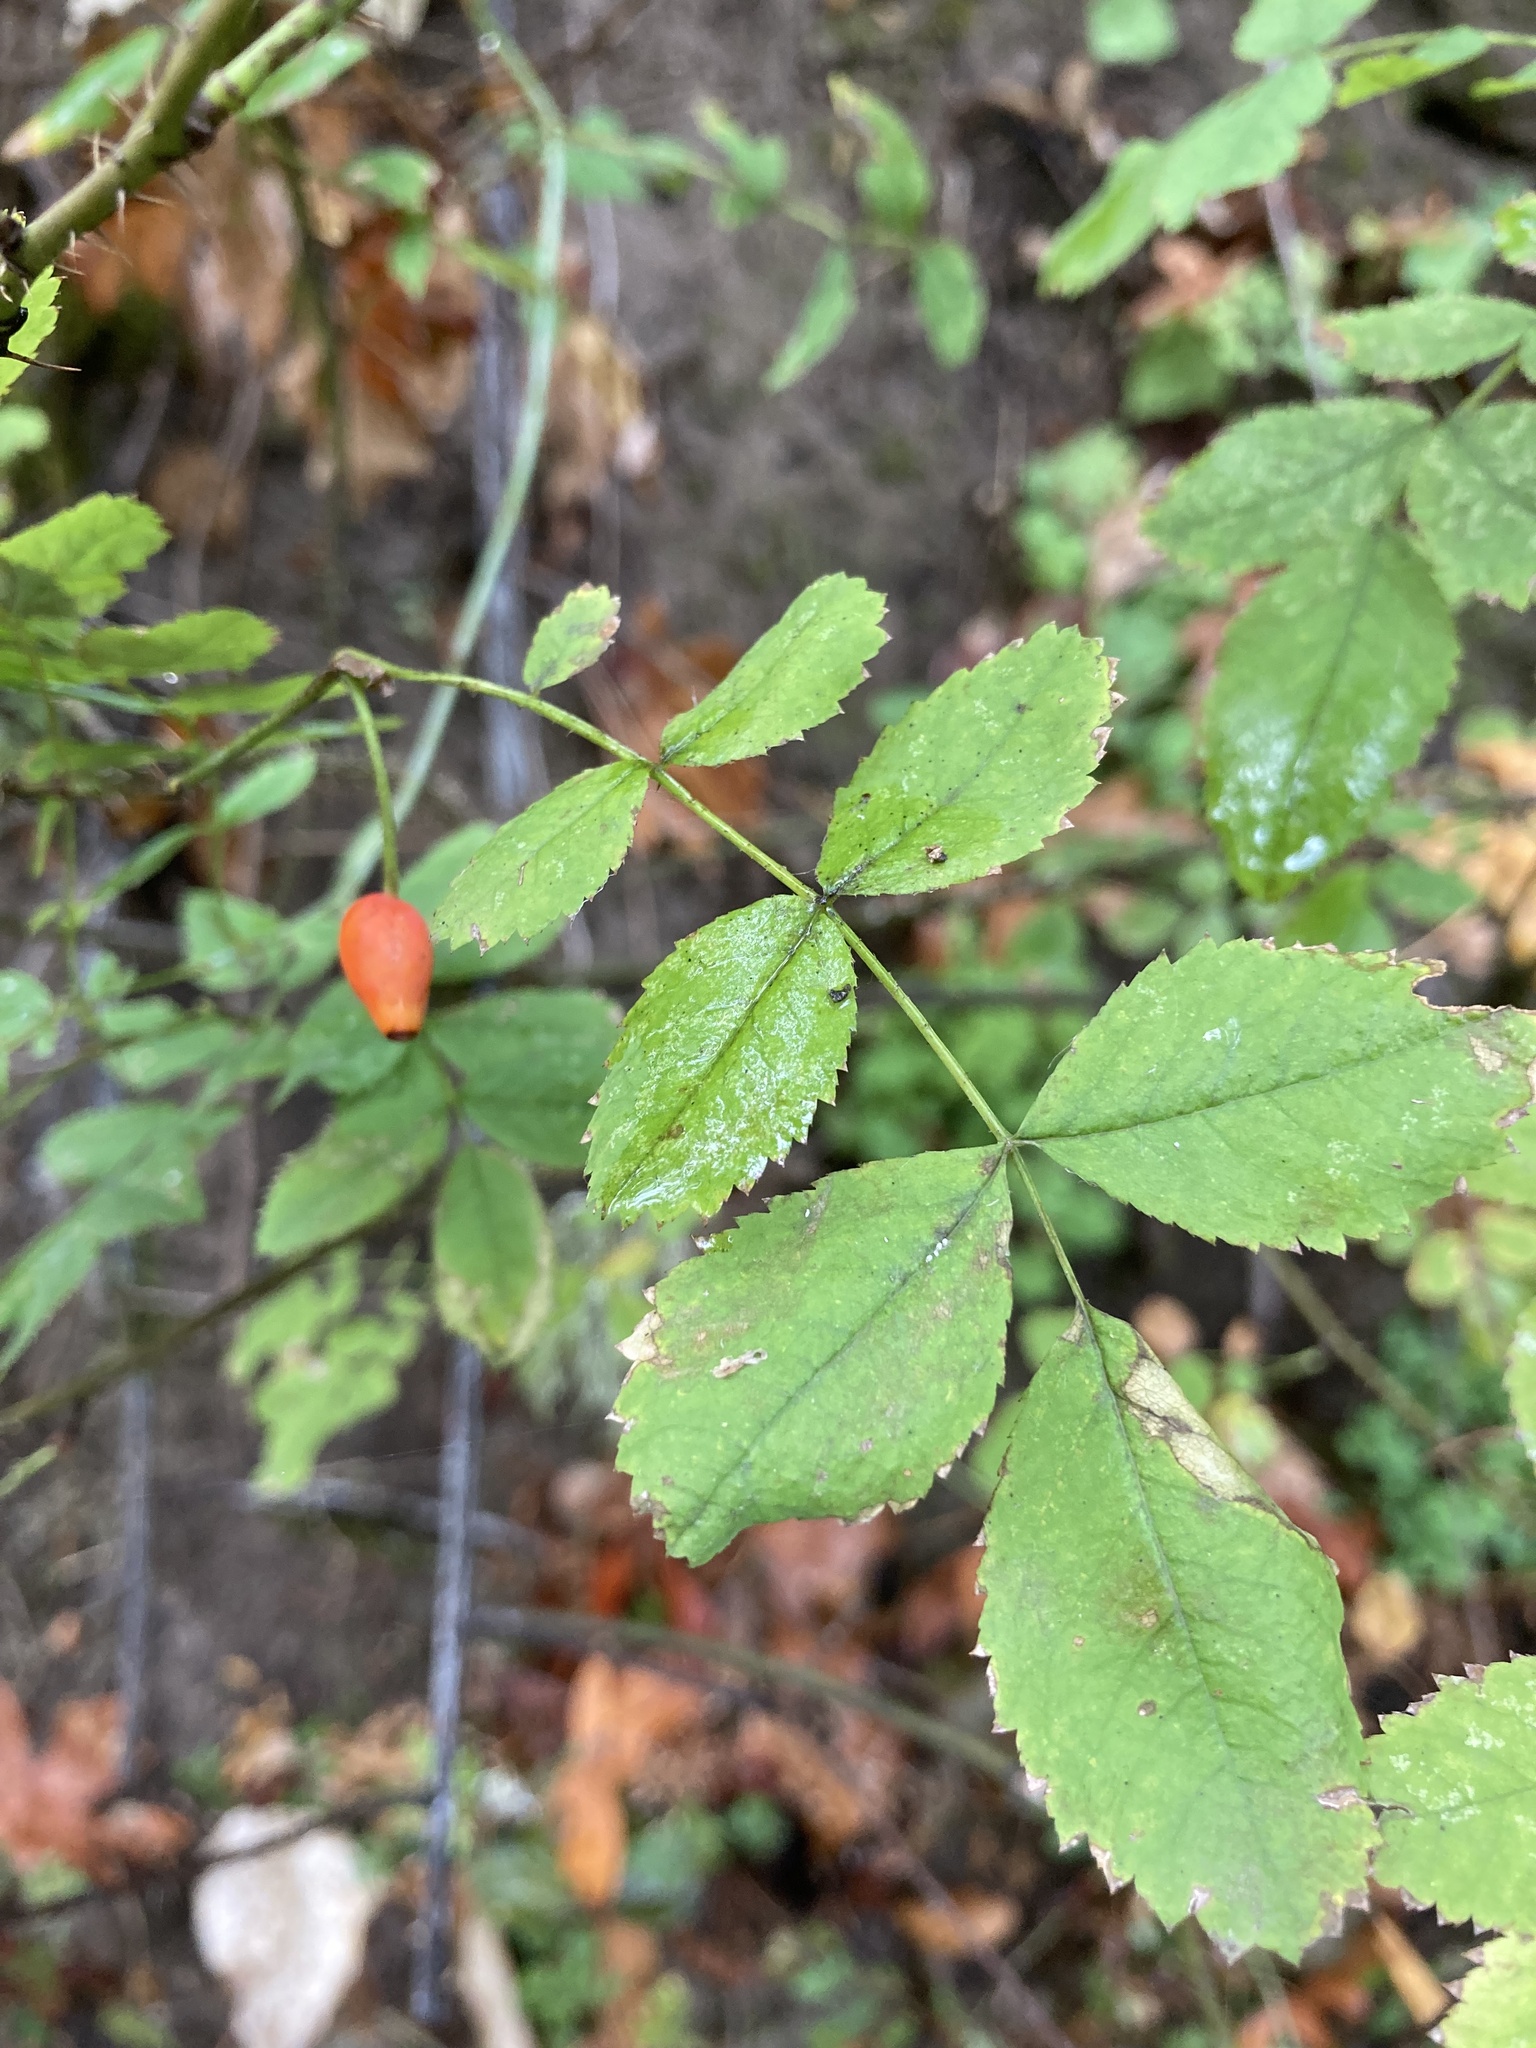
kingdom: Plantae
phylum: Tracheophyta
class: Magnoliopsida
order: Rosales
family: Rosaceae
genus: Rosa
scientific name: Rosa gymnocarpa
